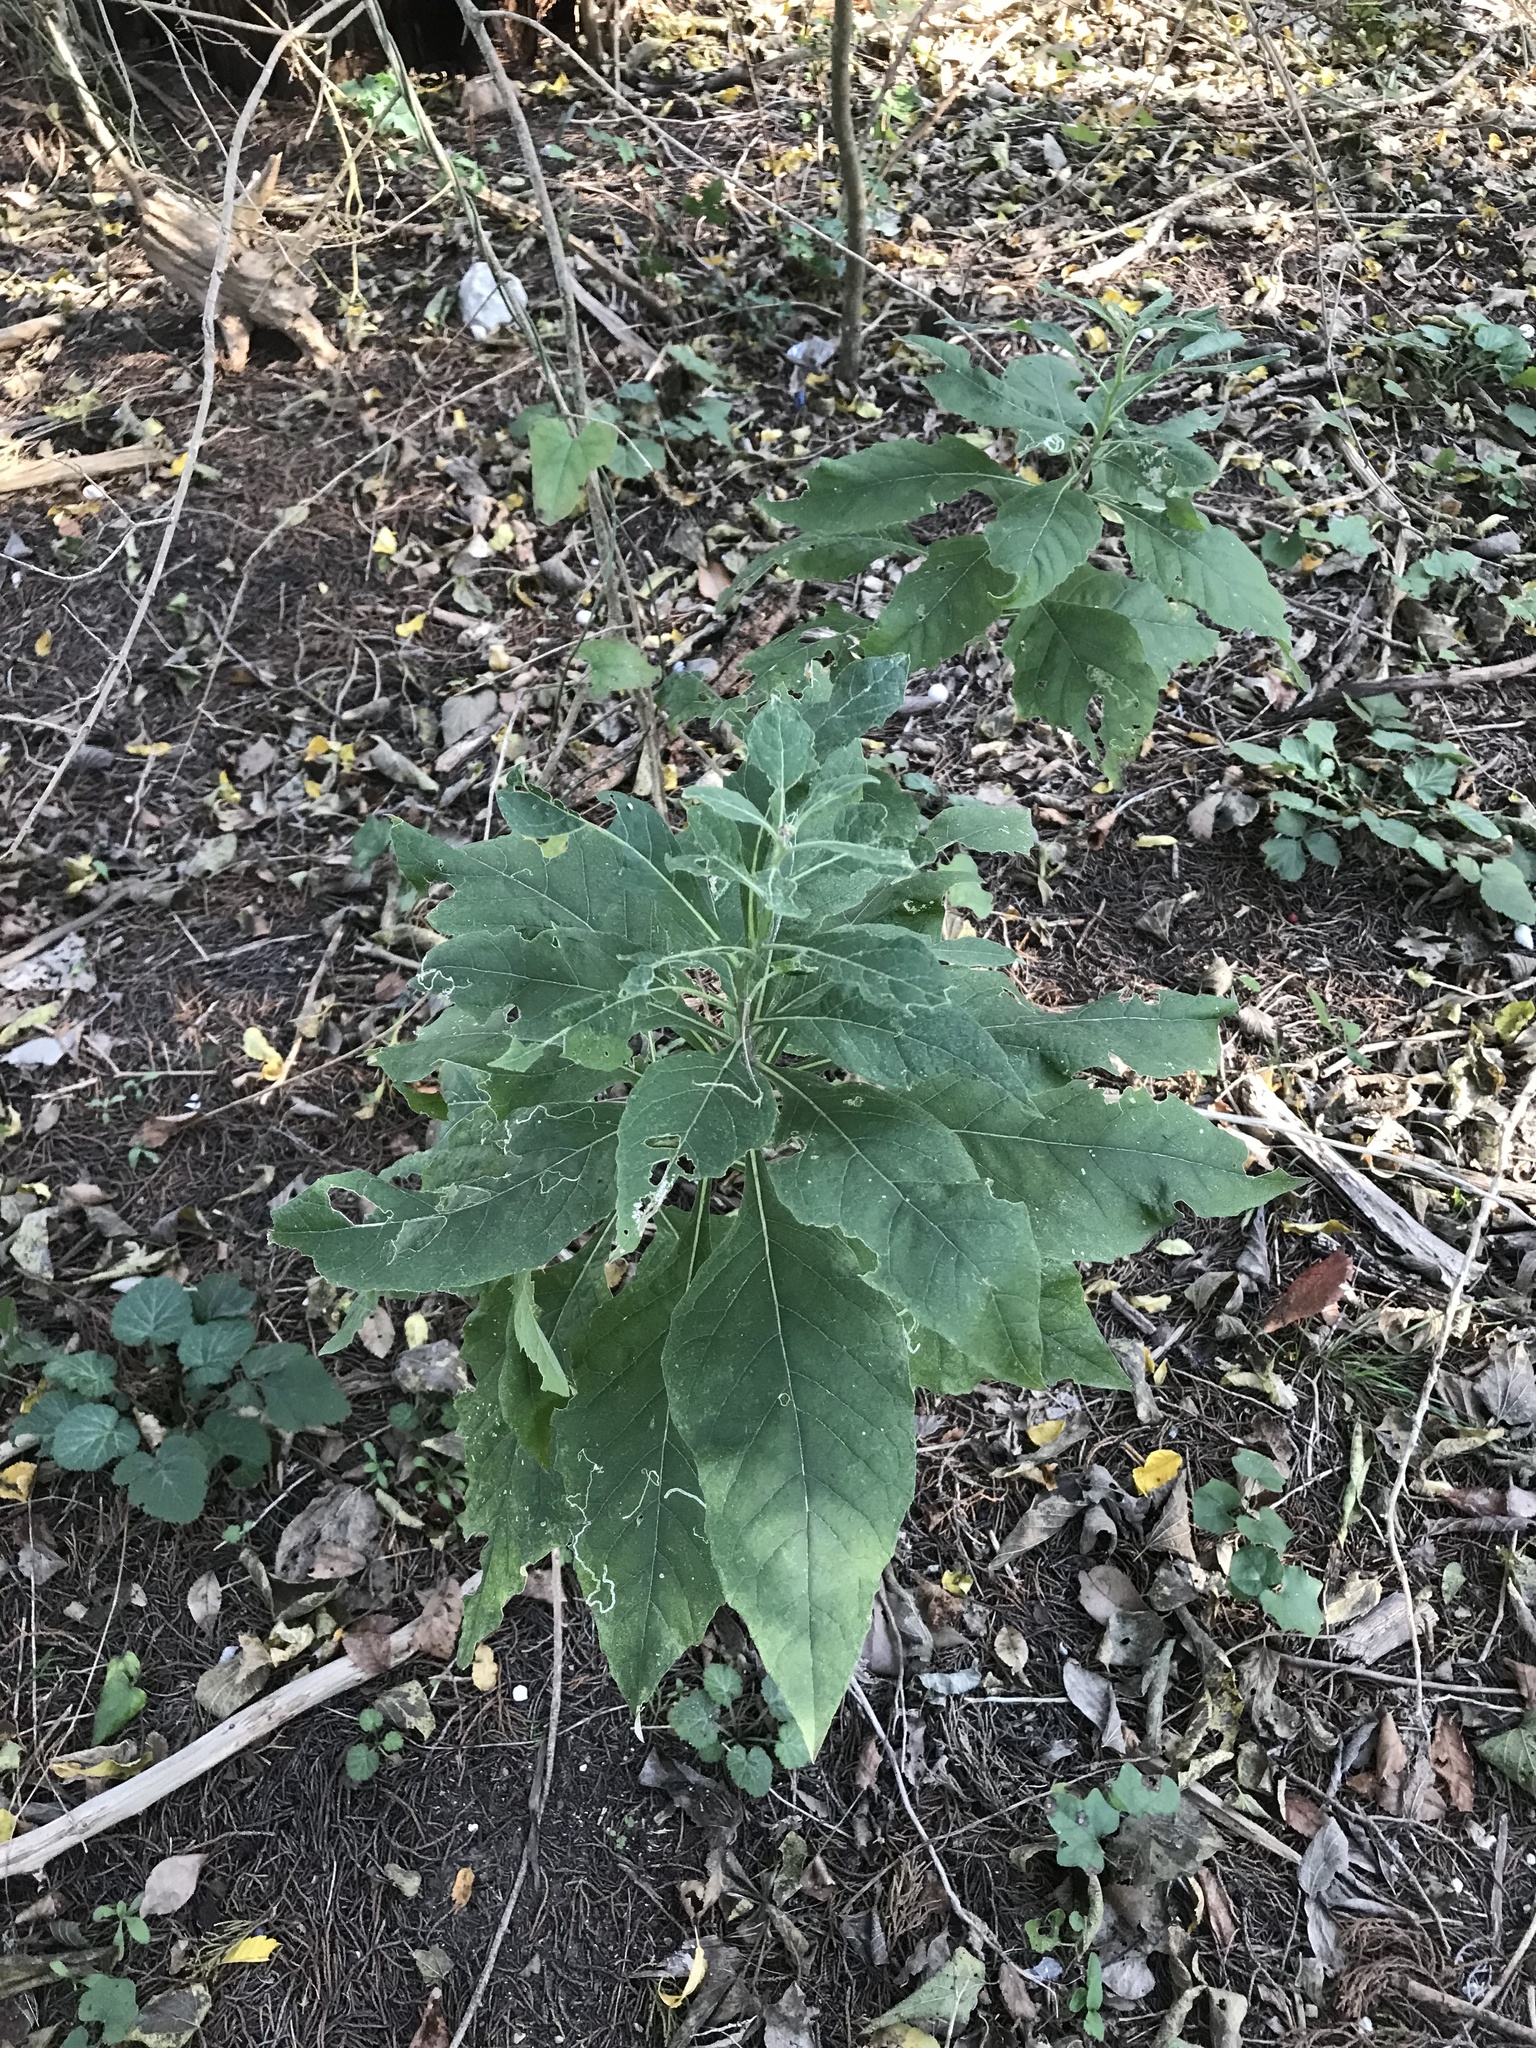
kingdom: Plantae
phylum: Tracheophyta
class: Magnoliopsida
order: Asterales
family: Asteraceae
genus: Verbesina
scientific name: Verbesina virginica
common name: Frostweed
